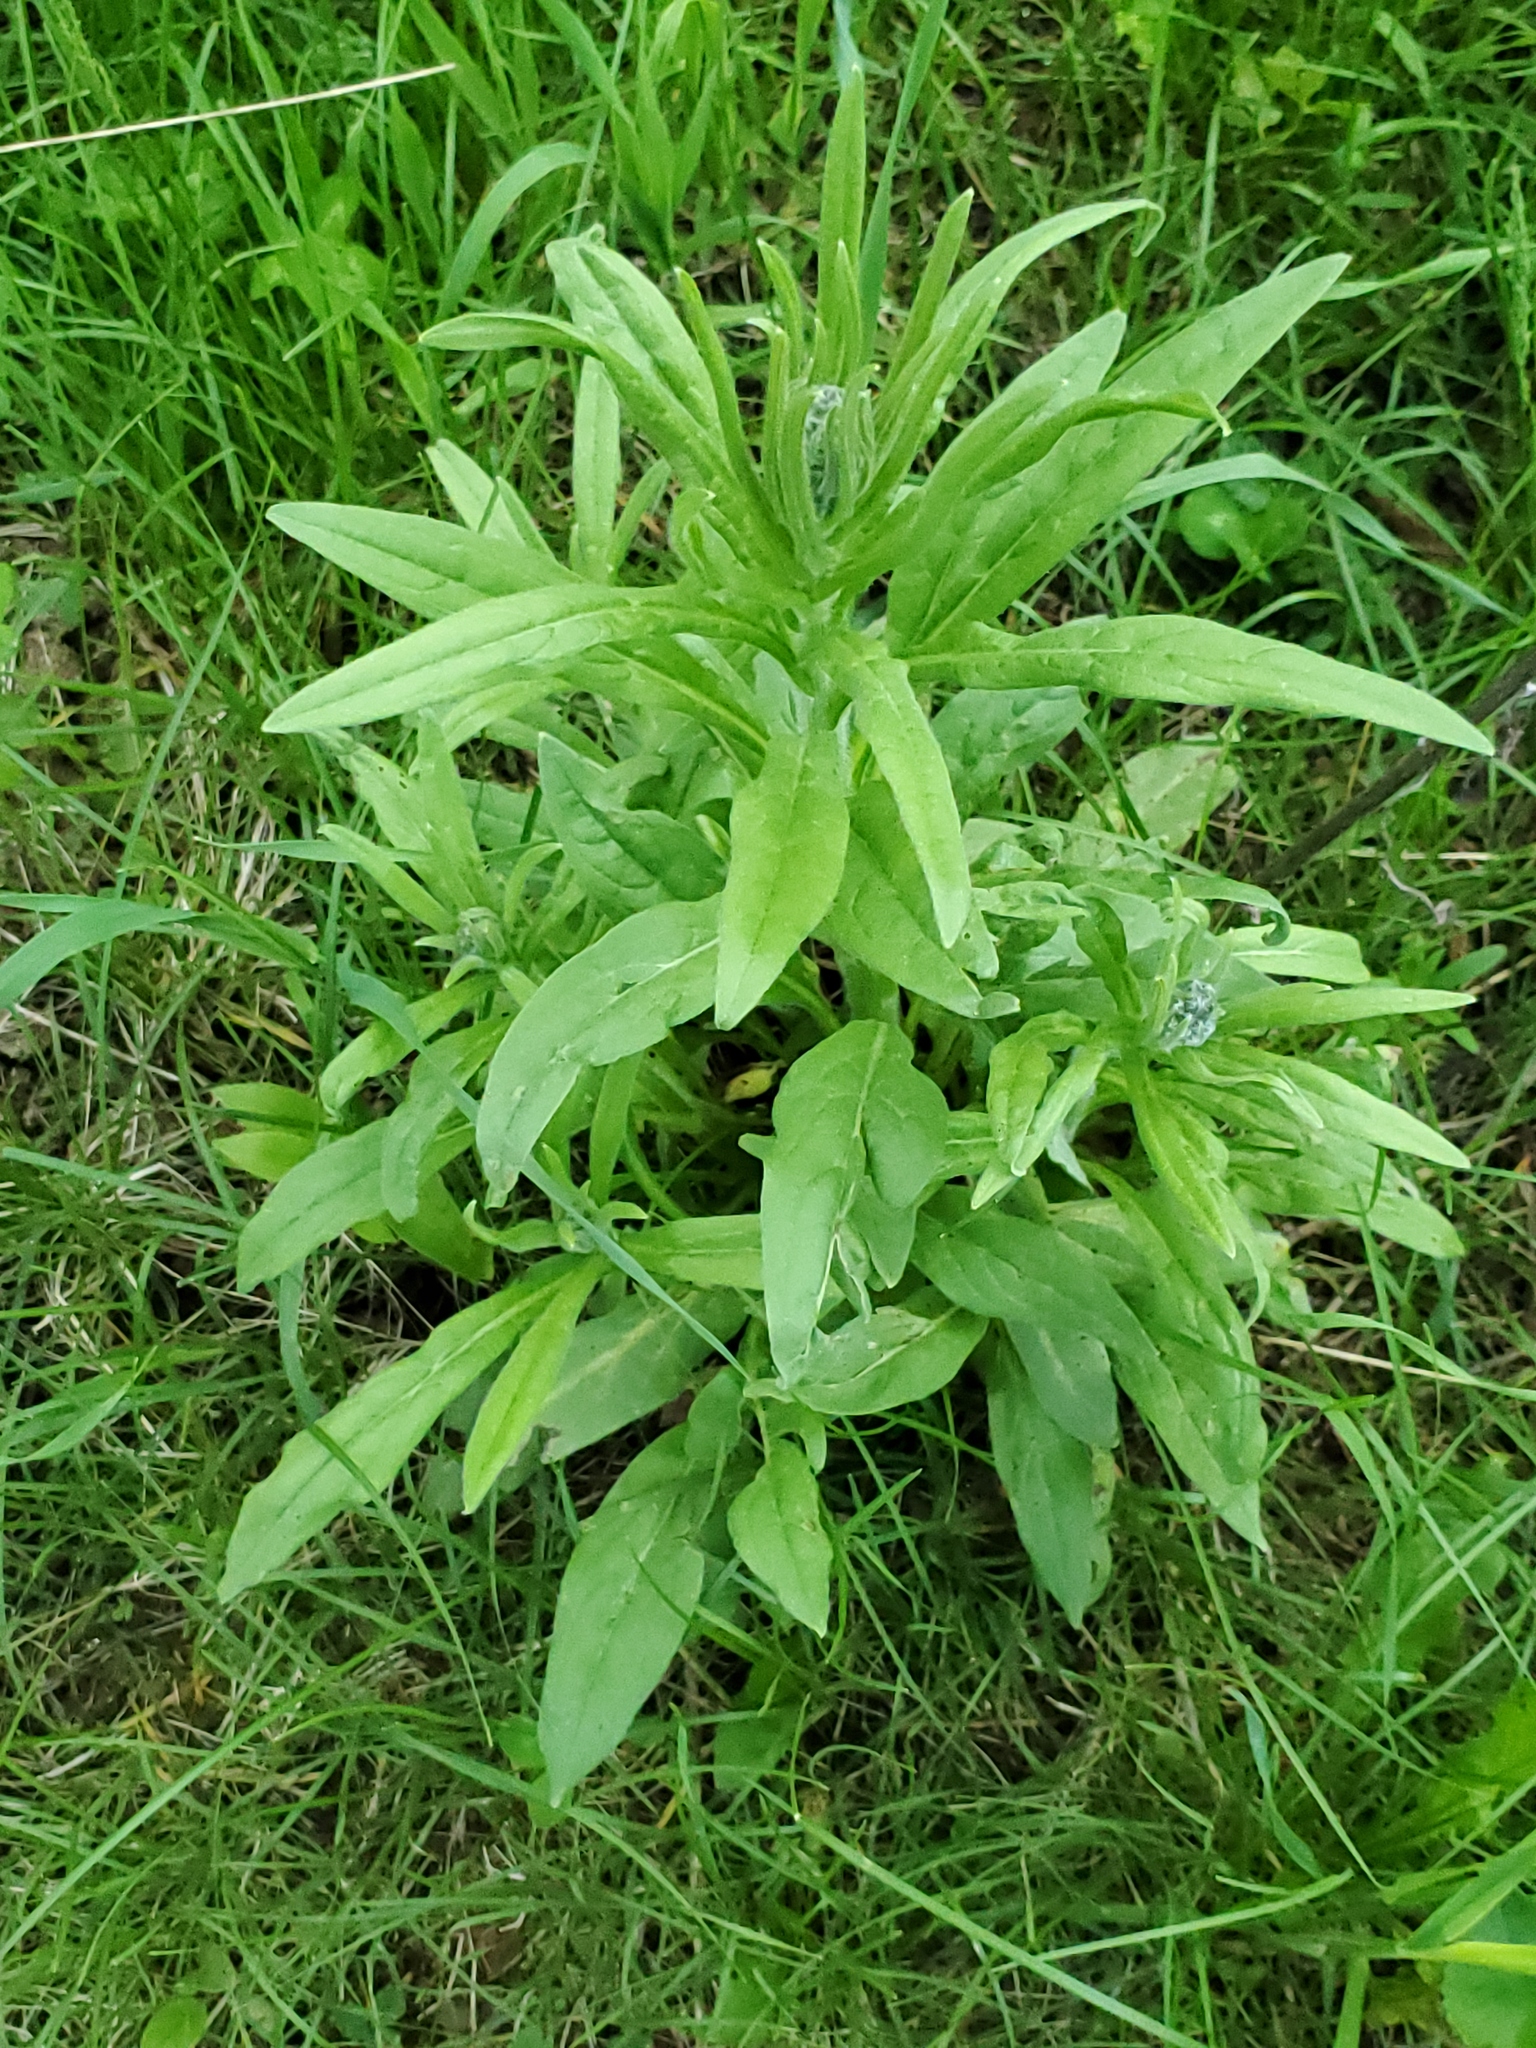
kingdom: Plantae
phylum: Tracheophyta
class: Magnoliopsida
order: Boraginales
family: Boraginaceae
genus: Cynoglossum
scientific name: Cynoglossum officinale
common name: Hound's-tongue
